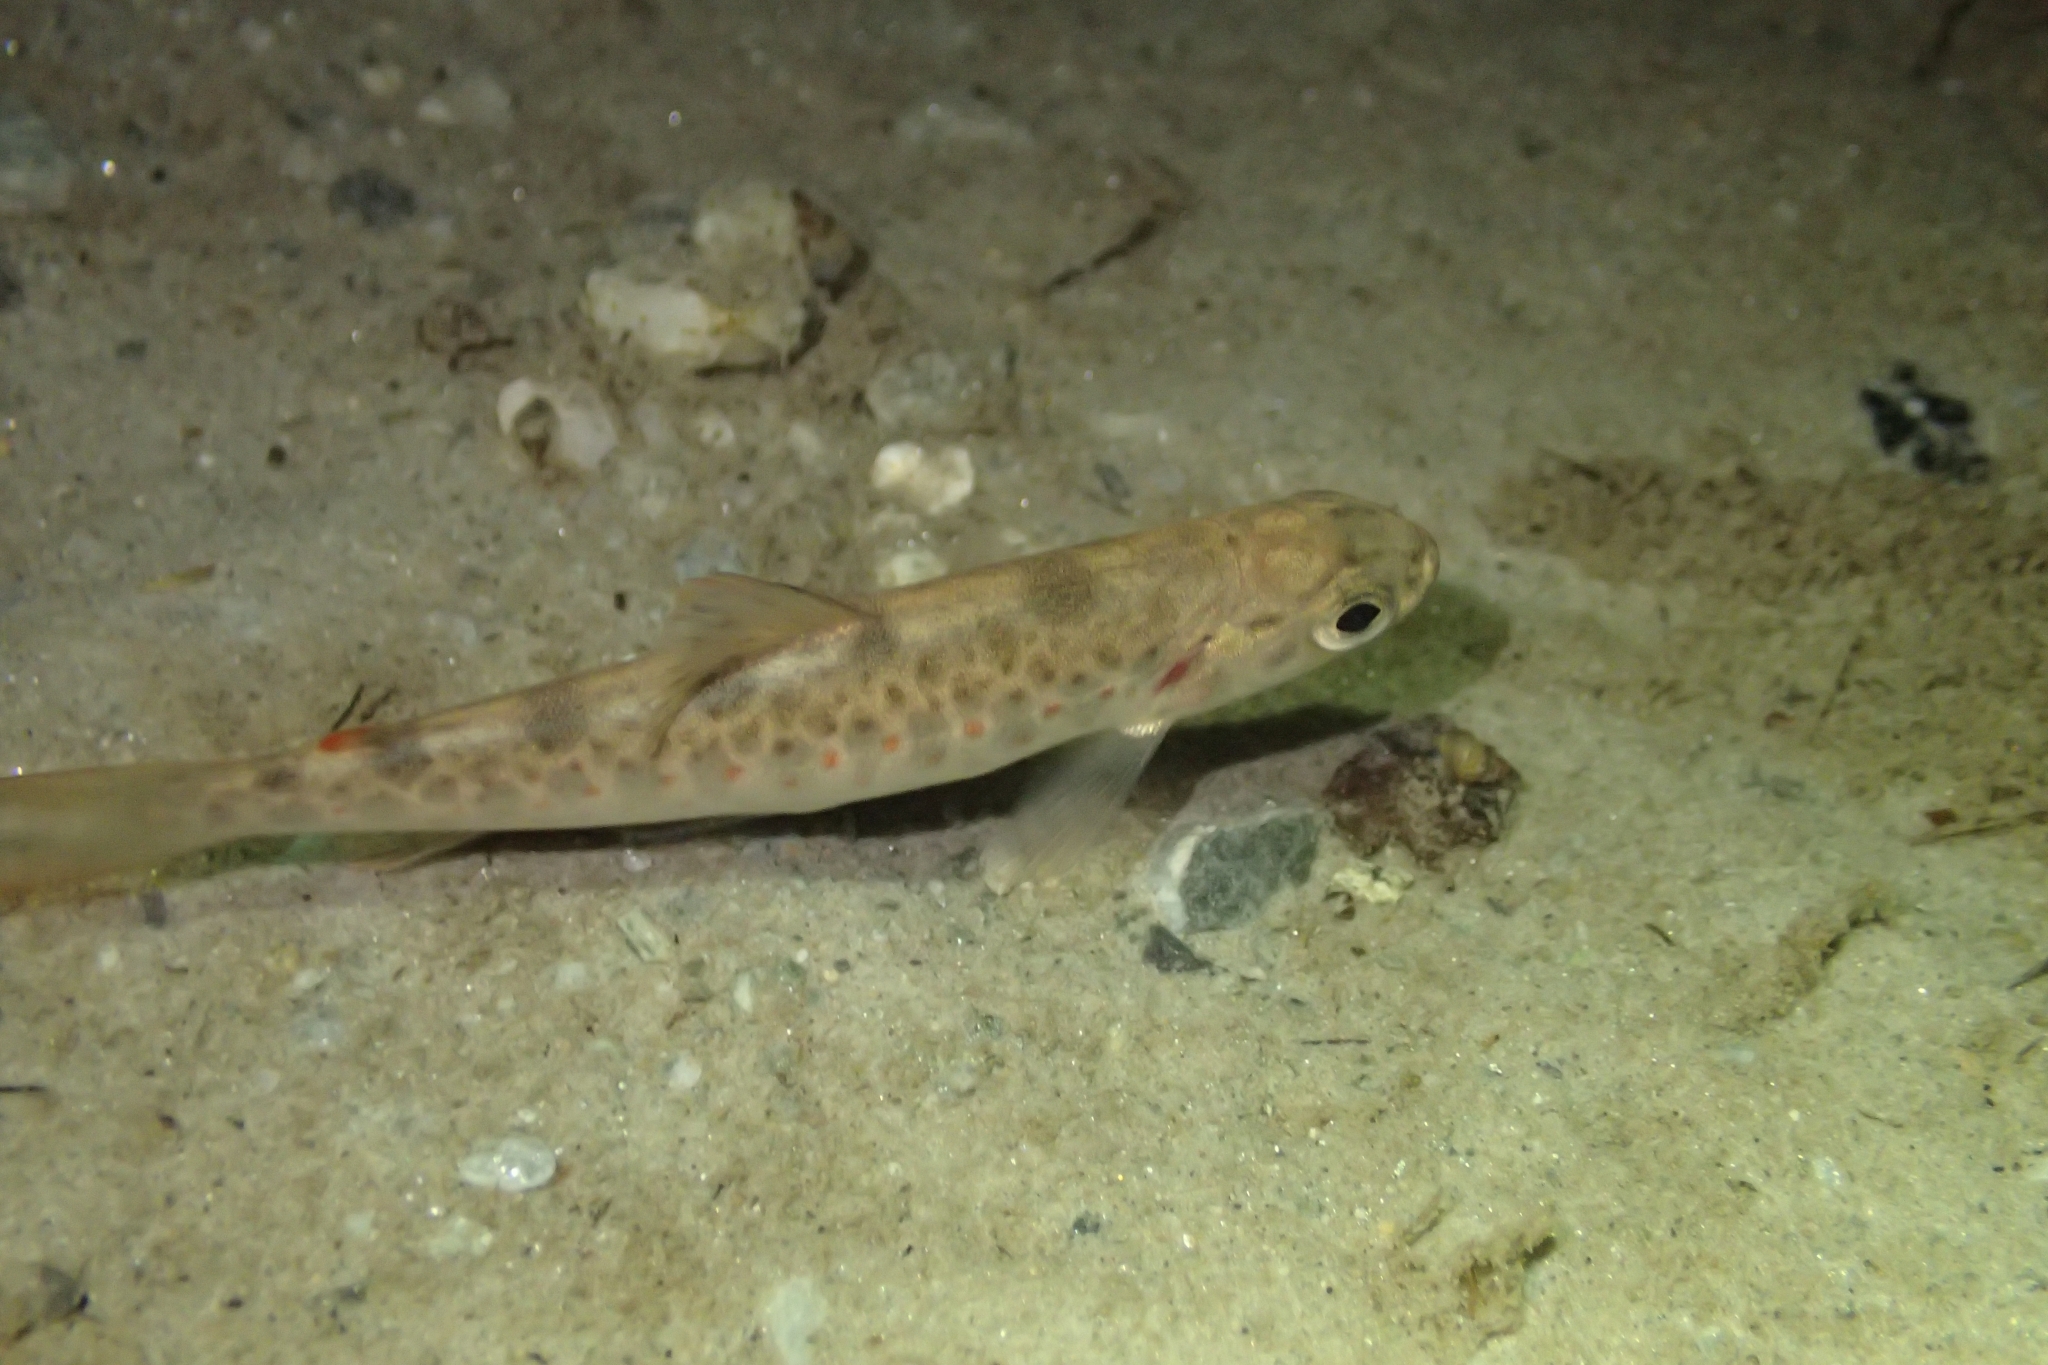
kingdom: Animalia
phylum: Chordata
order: Salmoniformes
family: Salmonidae
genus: Salmo
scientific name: Salmo trutta
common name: Brown trout
